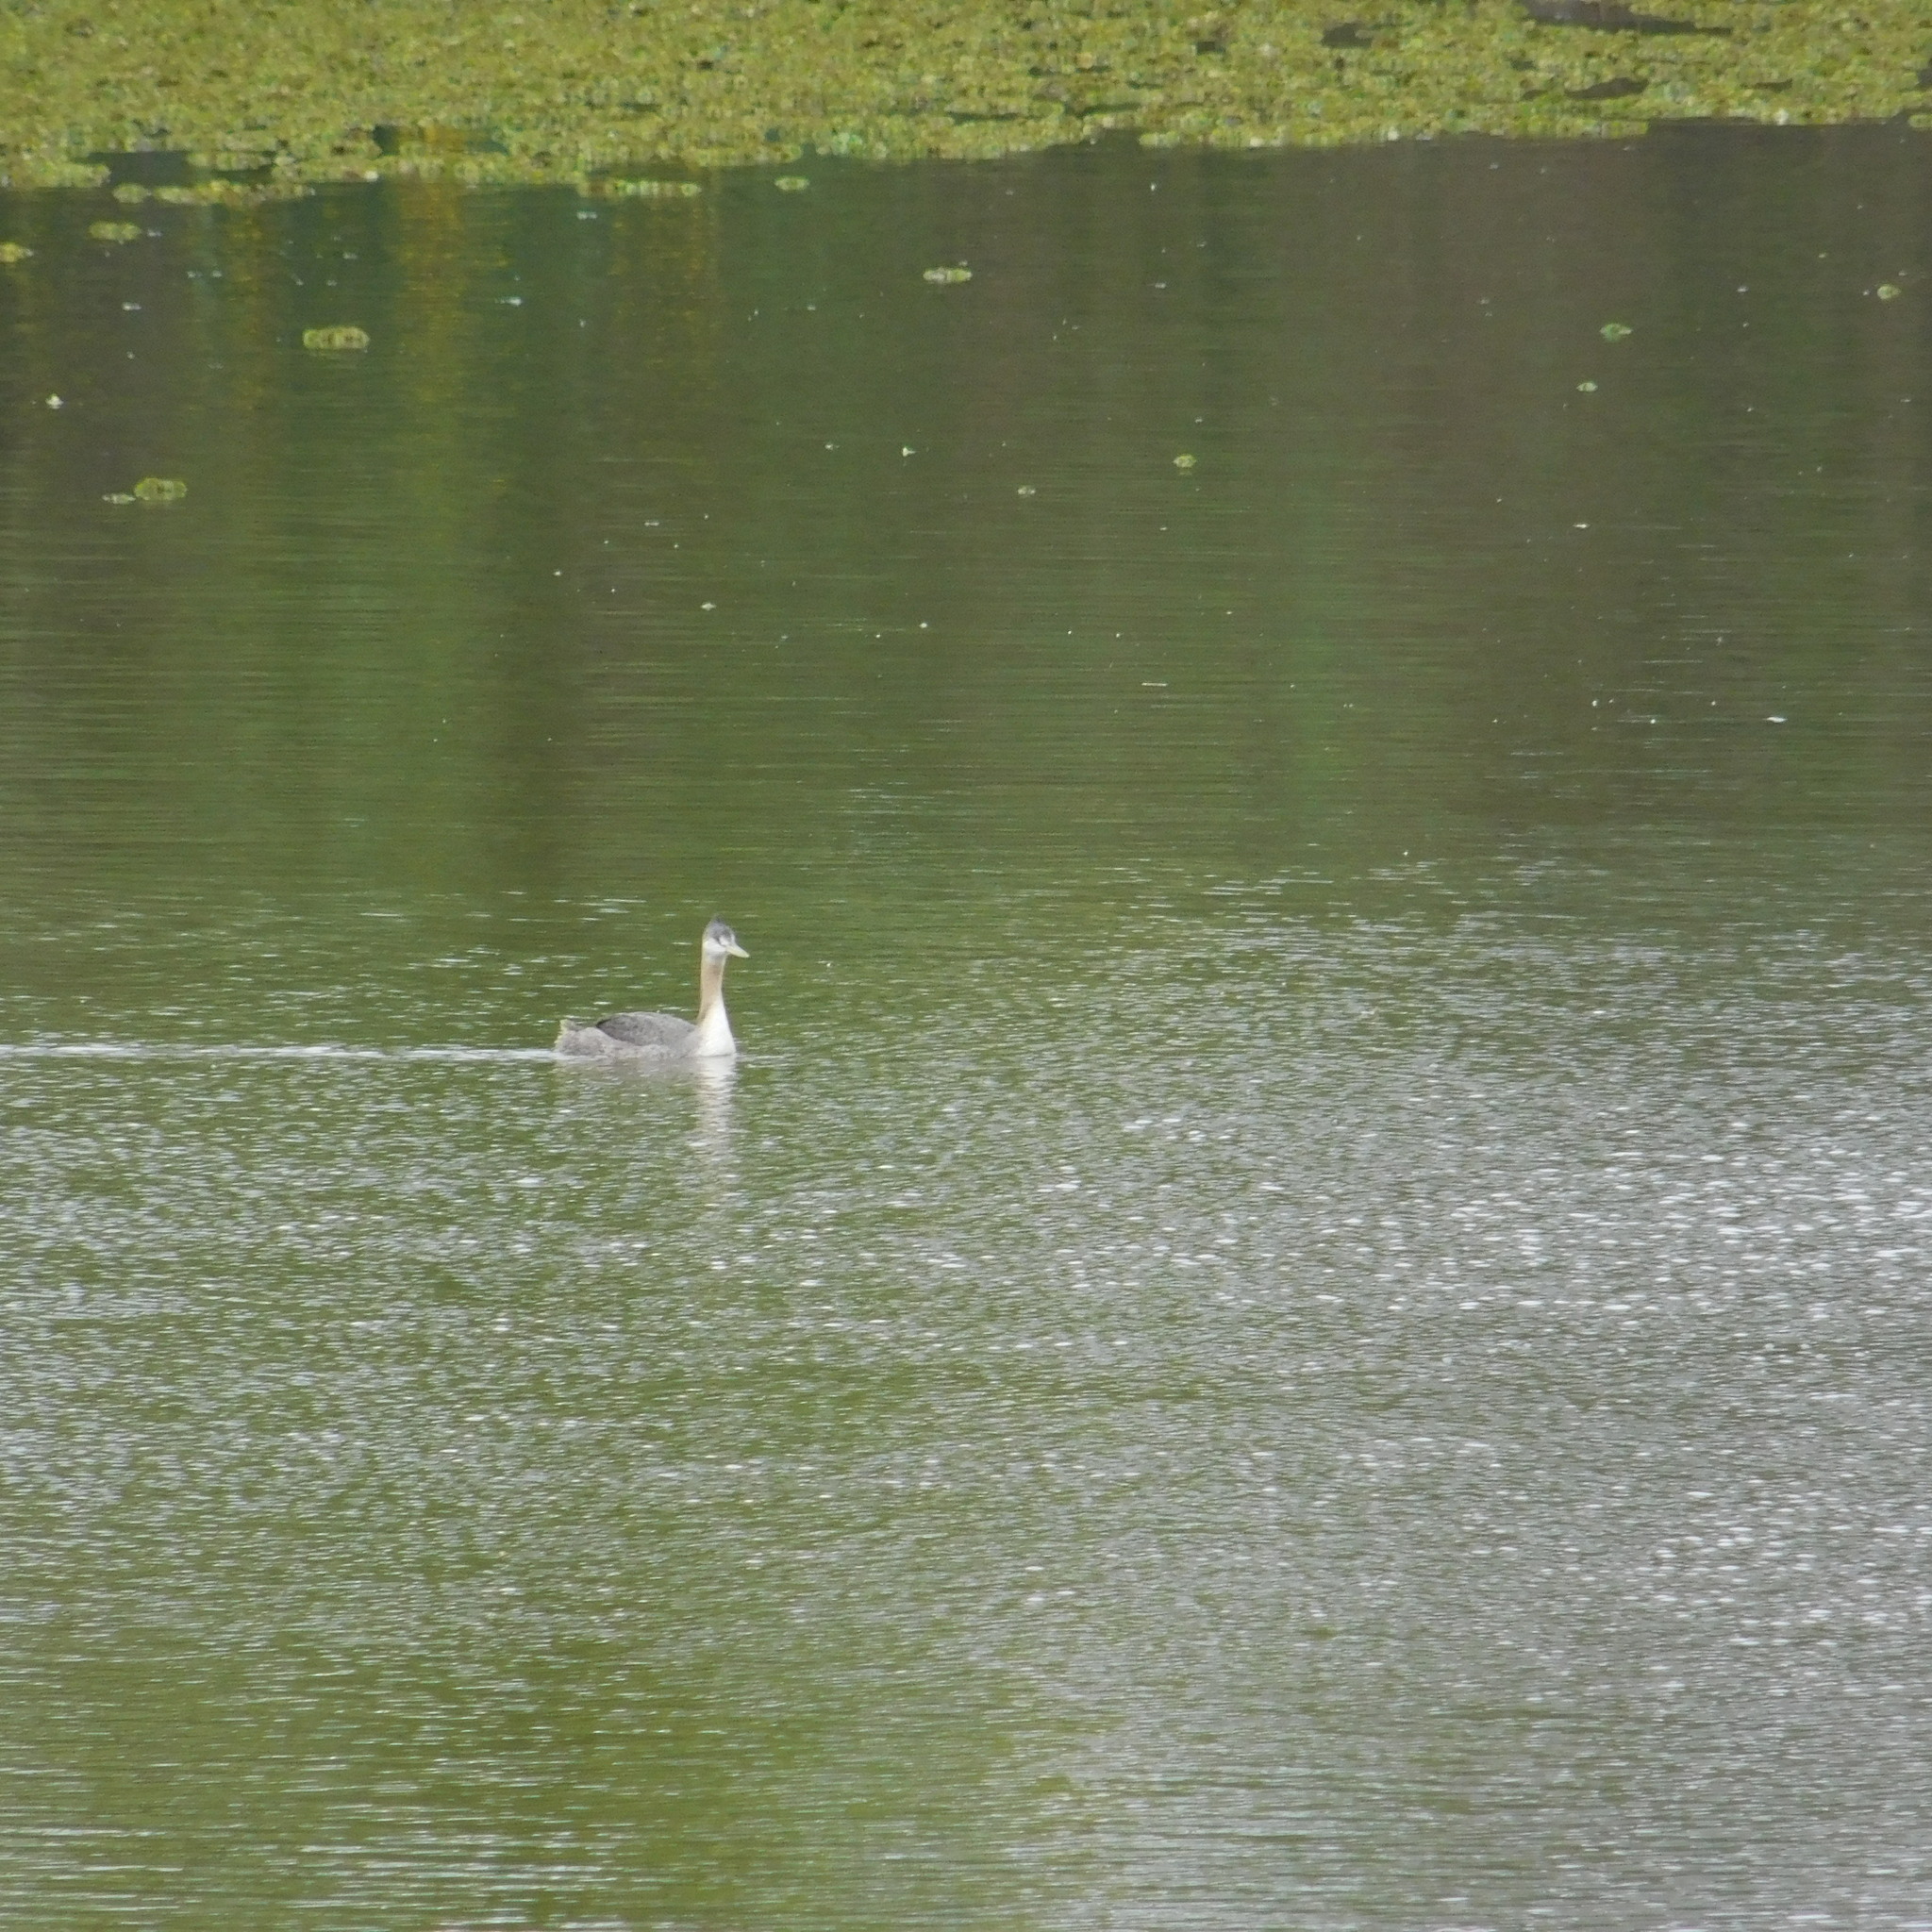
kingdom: Animalia
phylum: Chordata
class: Aves
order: Podicipediformes
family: Podicipedidae
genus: Podiceps
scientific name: Podiceps major
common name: Great grebe
